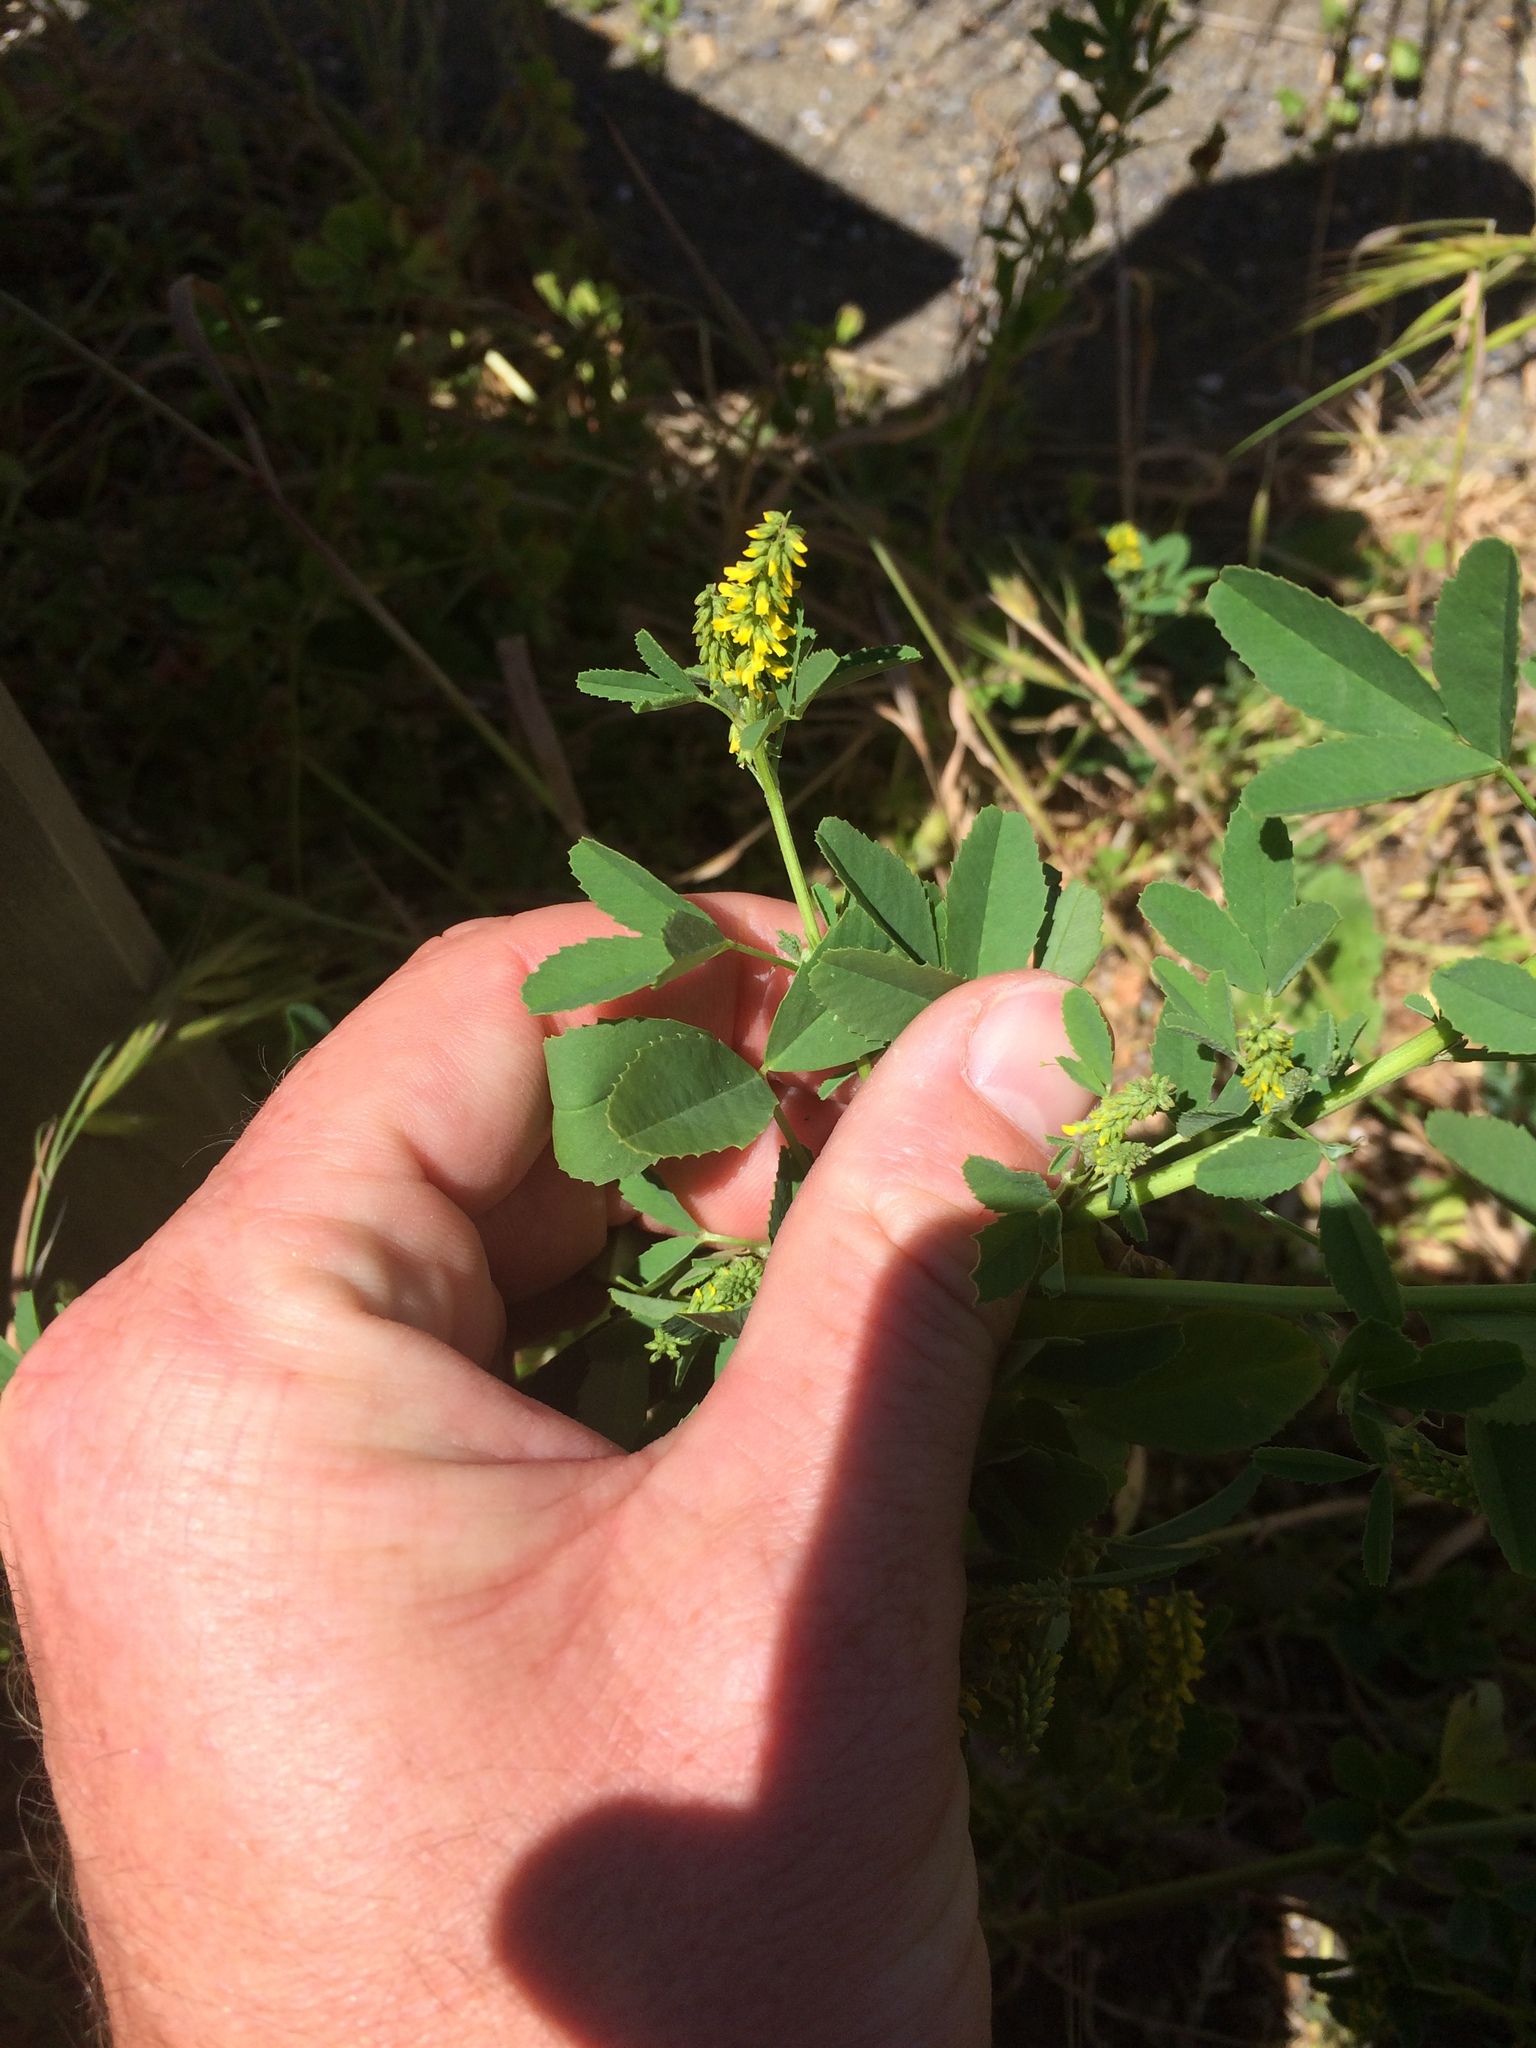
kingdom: Plantae
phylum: Tracheophyta
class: Magnoliopsida
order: Fabales
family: Fabaceae
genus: Melilotus
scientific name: Melilotus indicus
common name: Small melilot
